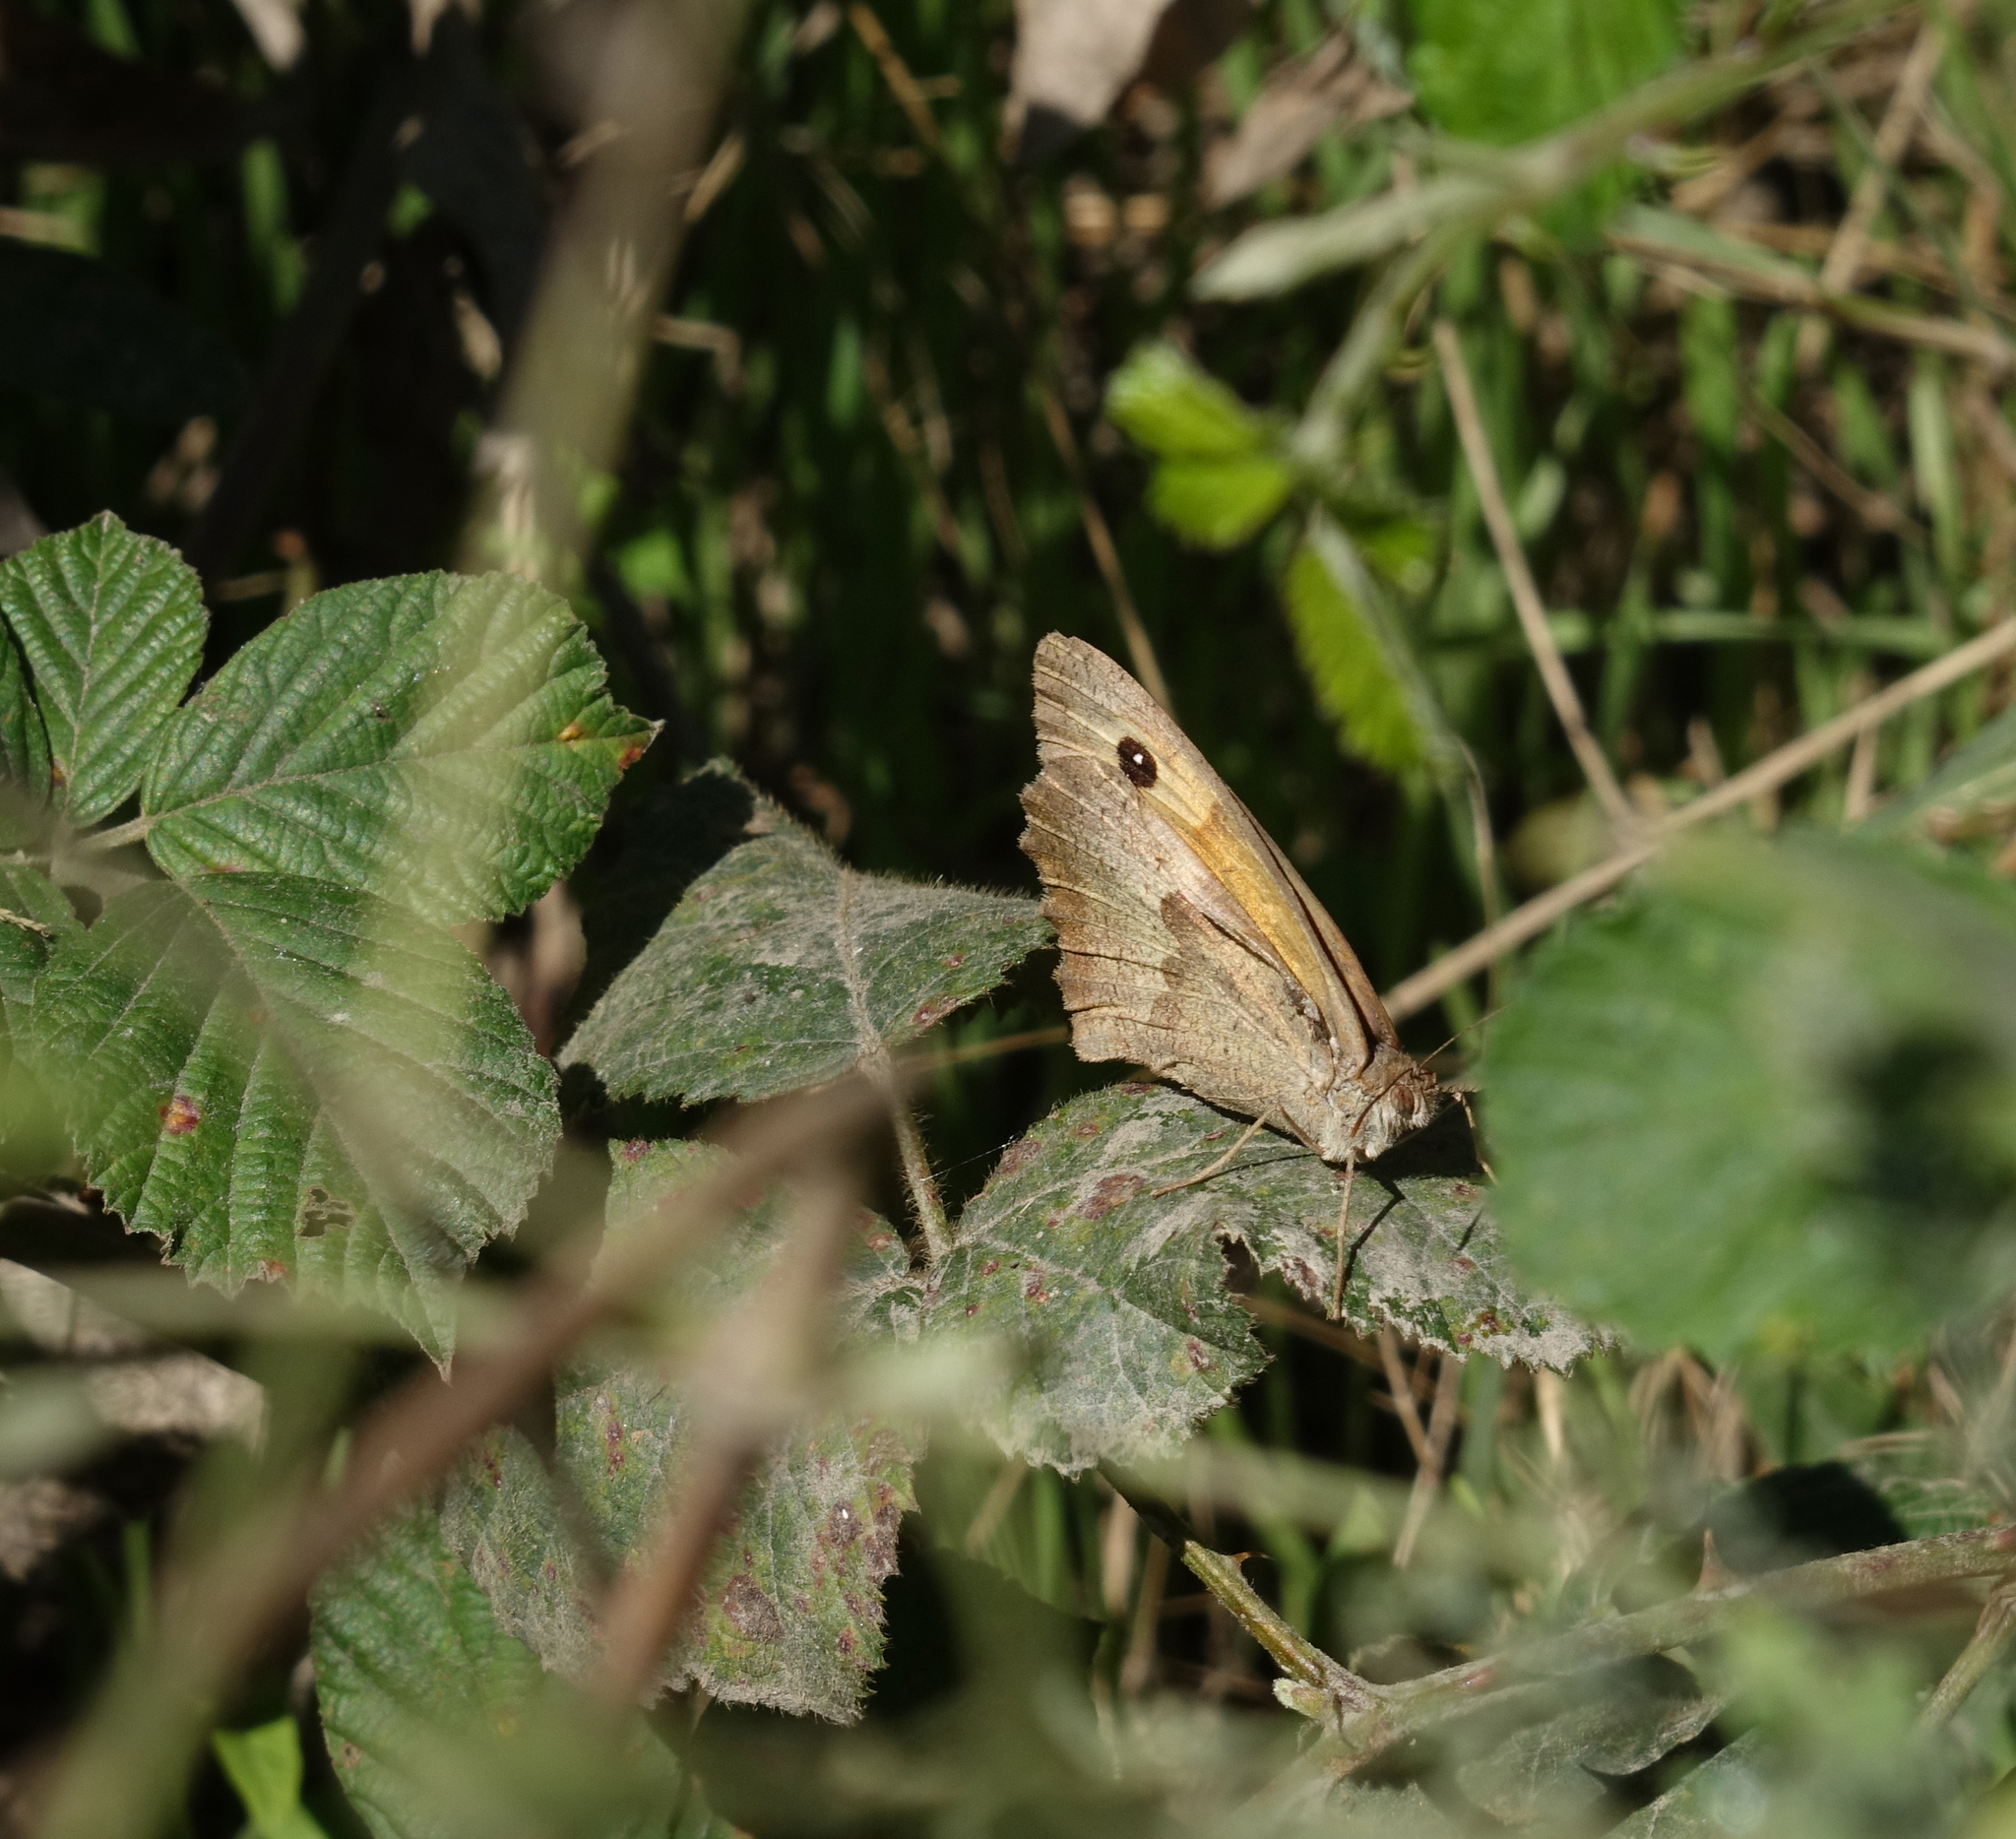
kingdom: Animalia
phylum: Arthropoda
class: Insecta
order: Lepidoptera
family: Nymphalidae
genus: Maniola
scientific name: Maniola jurtina
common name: Meadow brown
